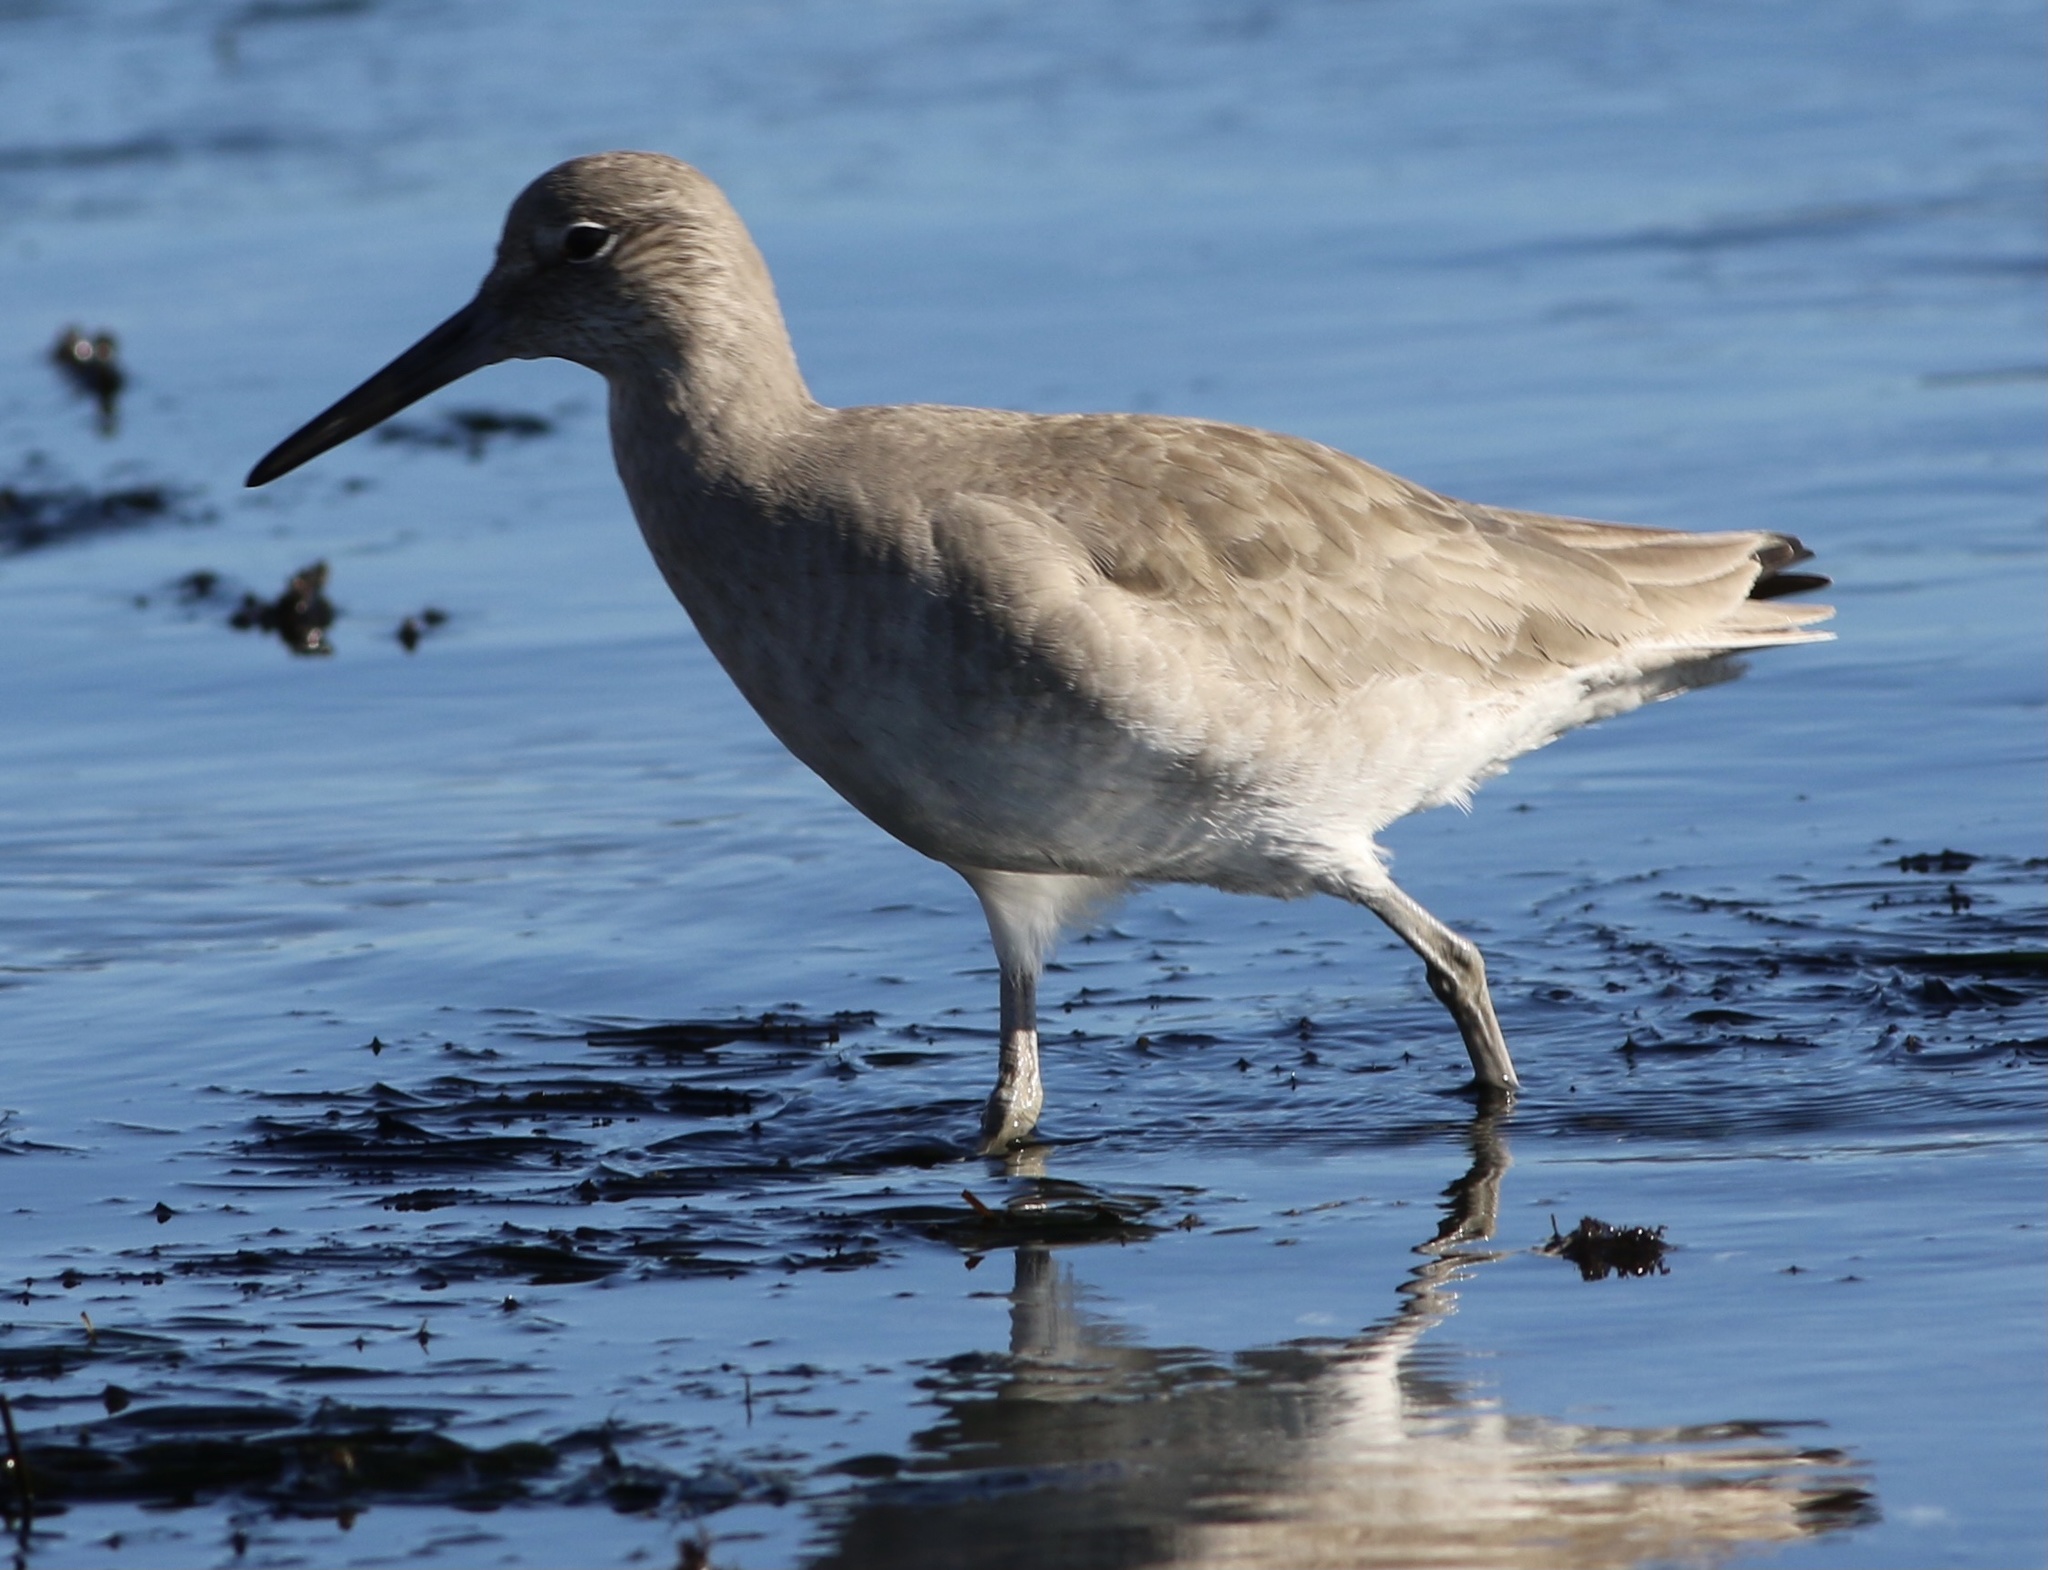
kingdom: Animalia
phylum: Chordata
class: Aves
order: Charadriiformes
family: Scolopacidae
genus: Tringa
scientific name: Tringa semipalmata
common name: Willet
